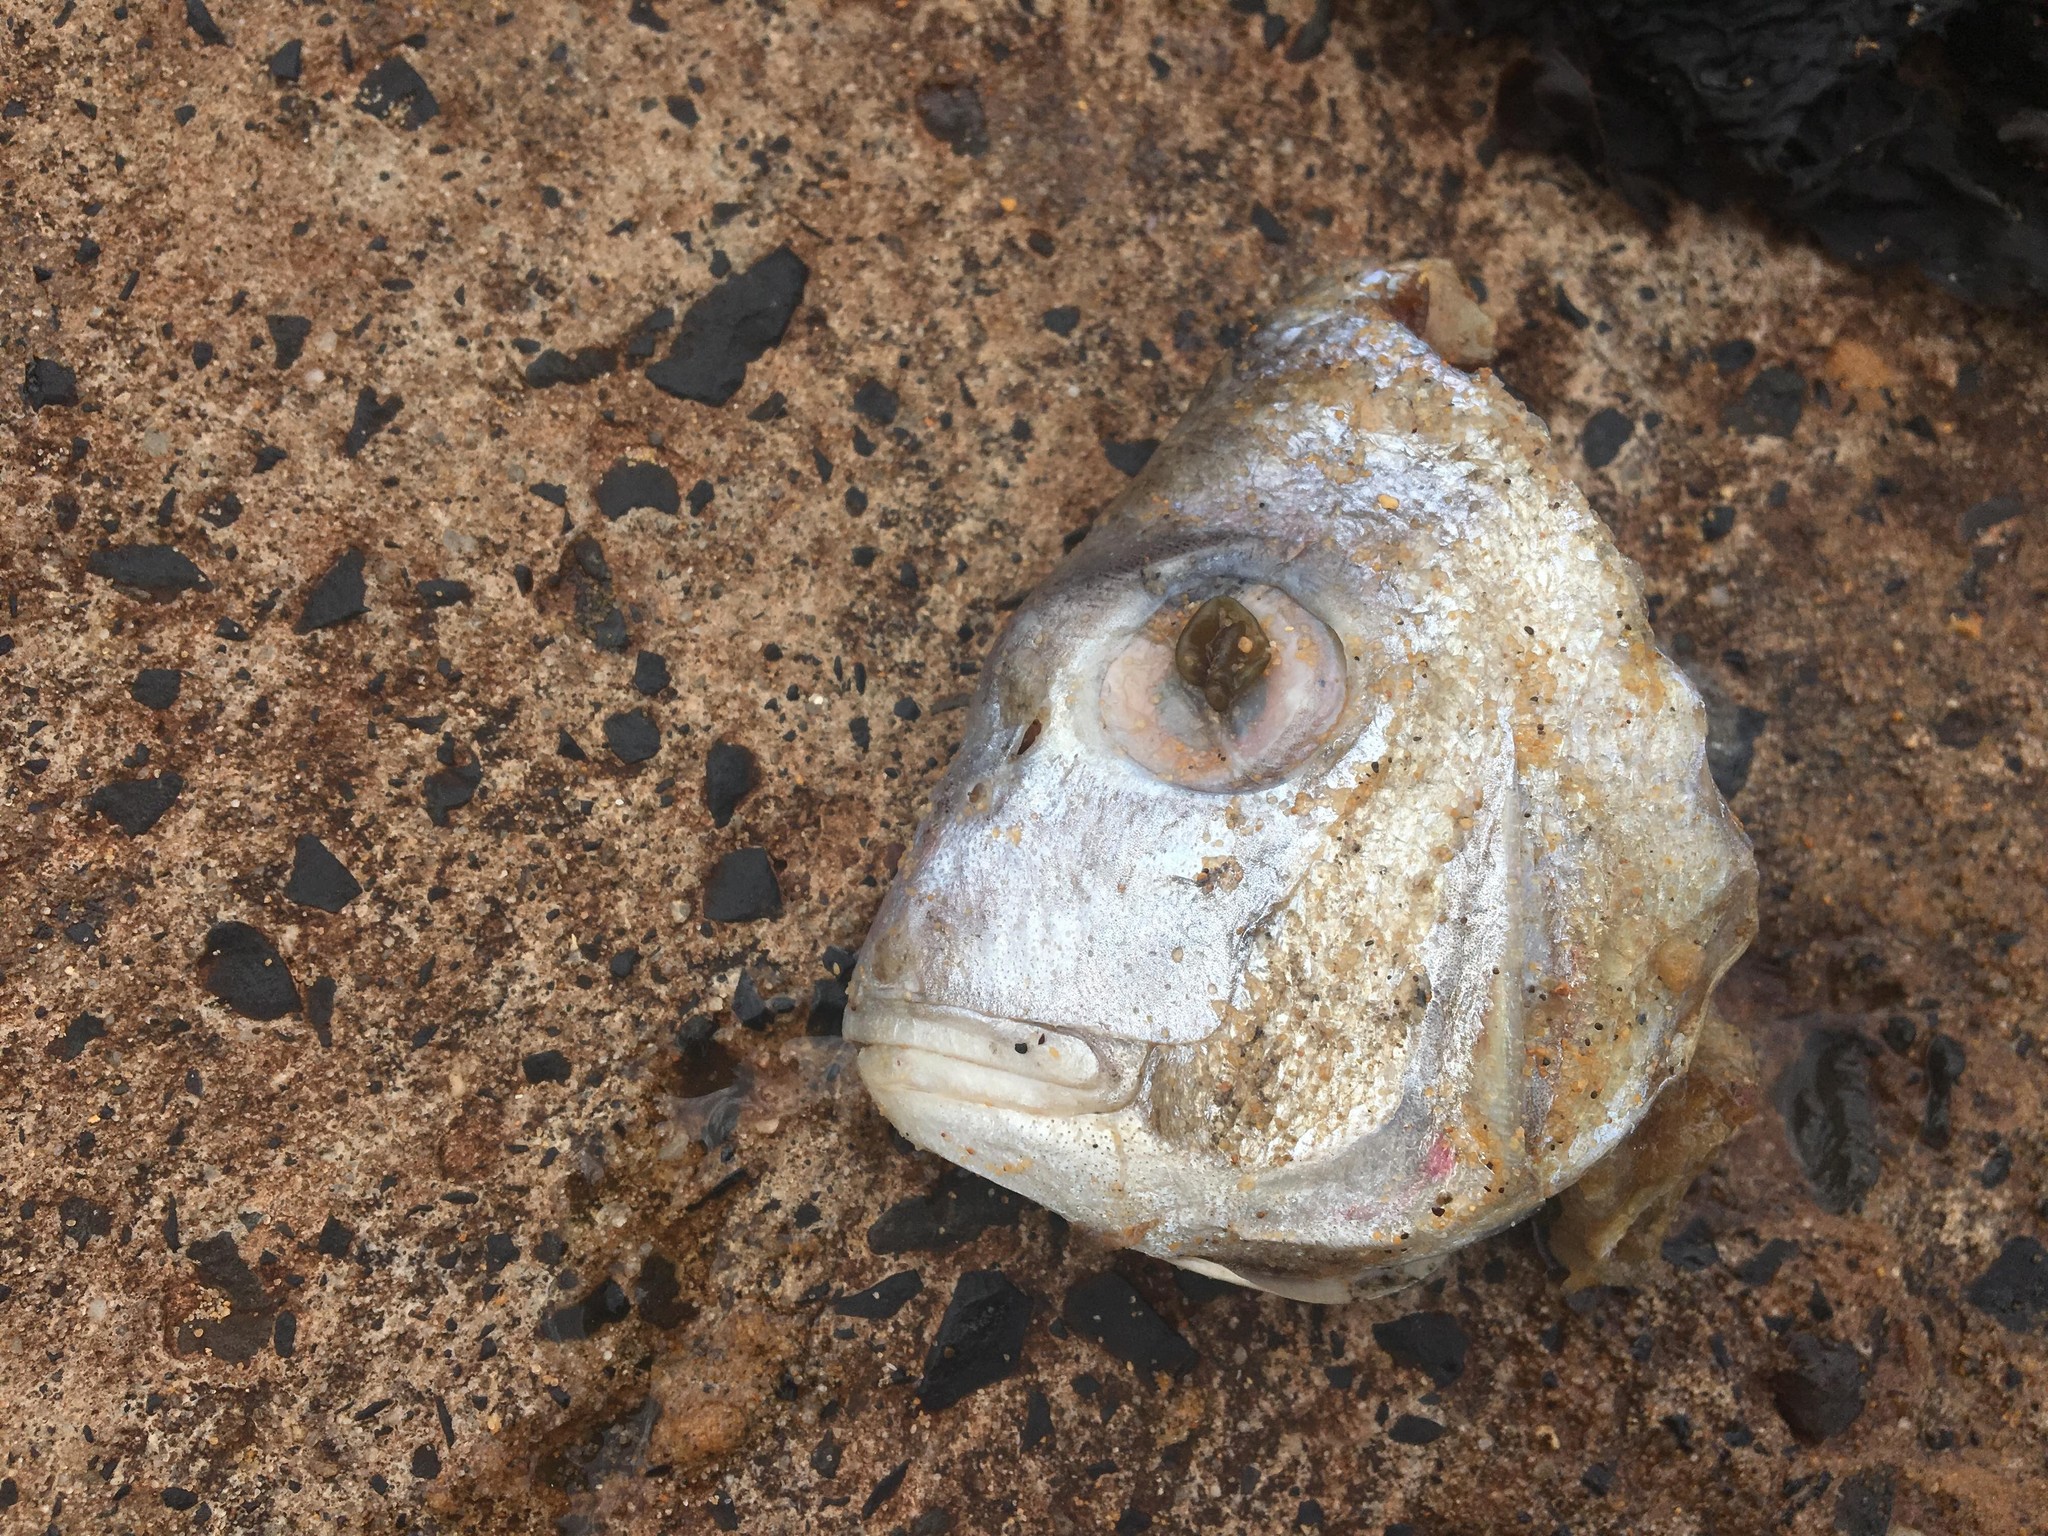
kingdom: Animalia
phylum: Chordata
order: Perciformes
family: Sparidae
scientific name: Sparidae
